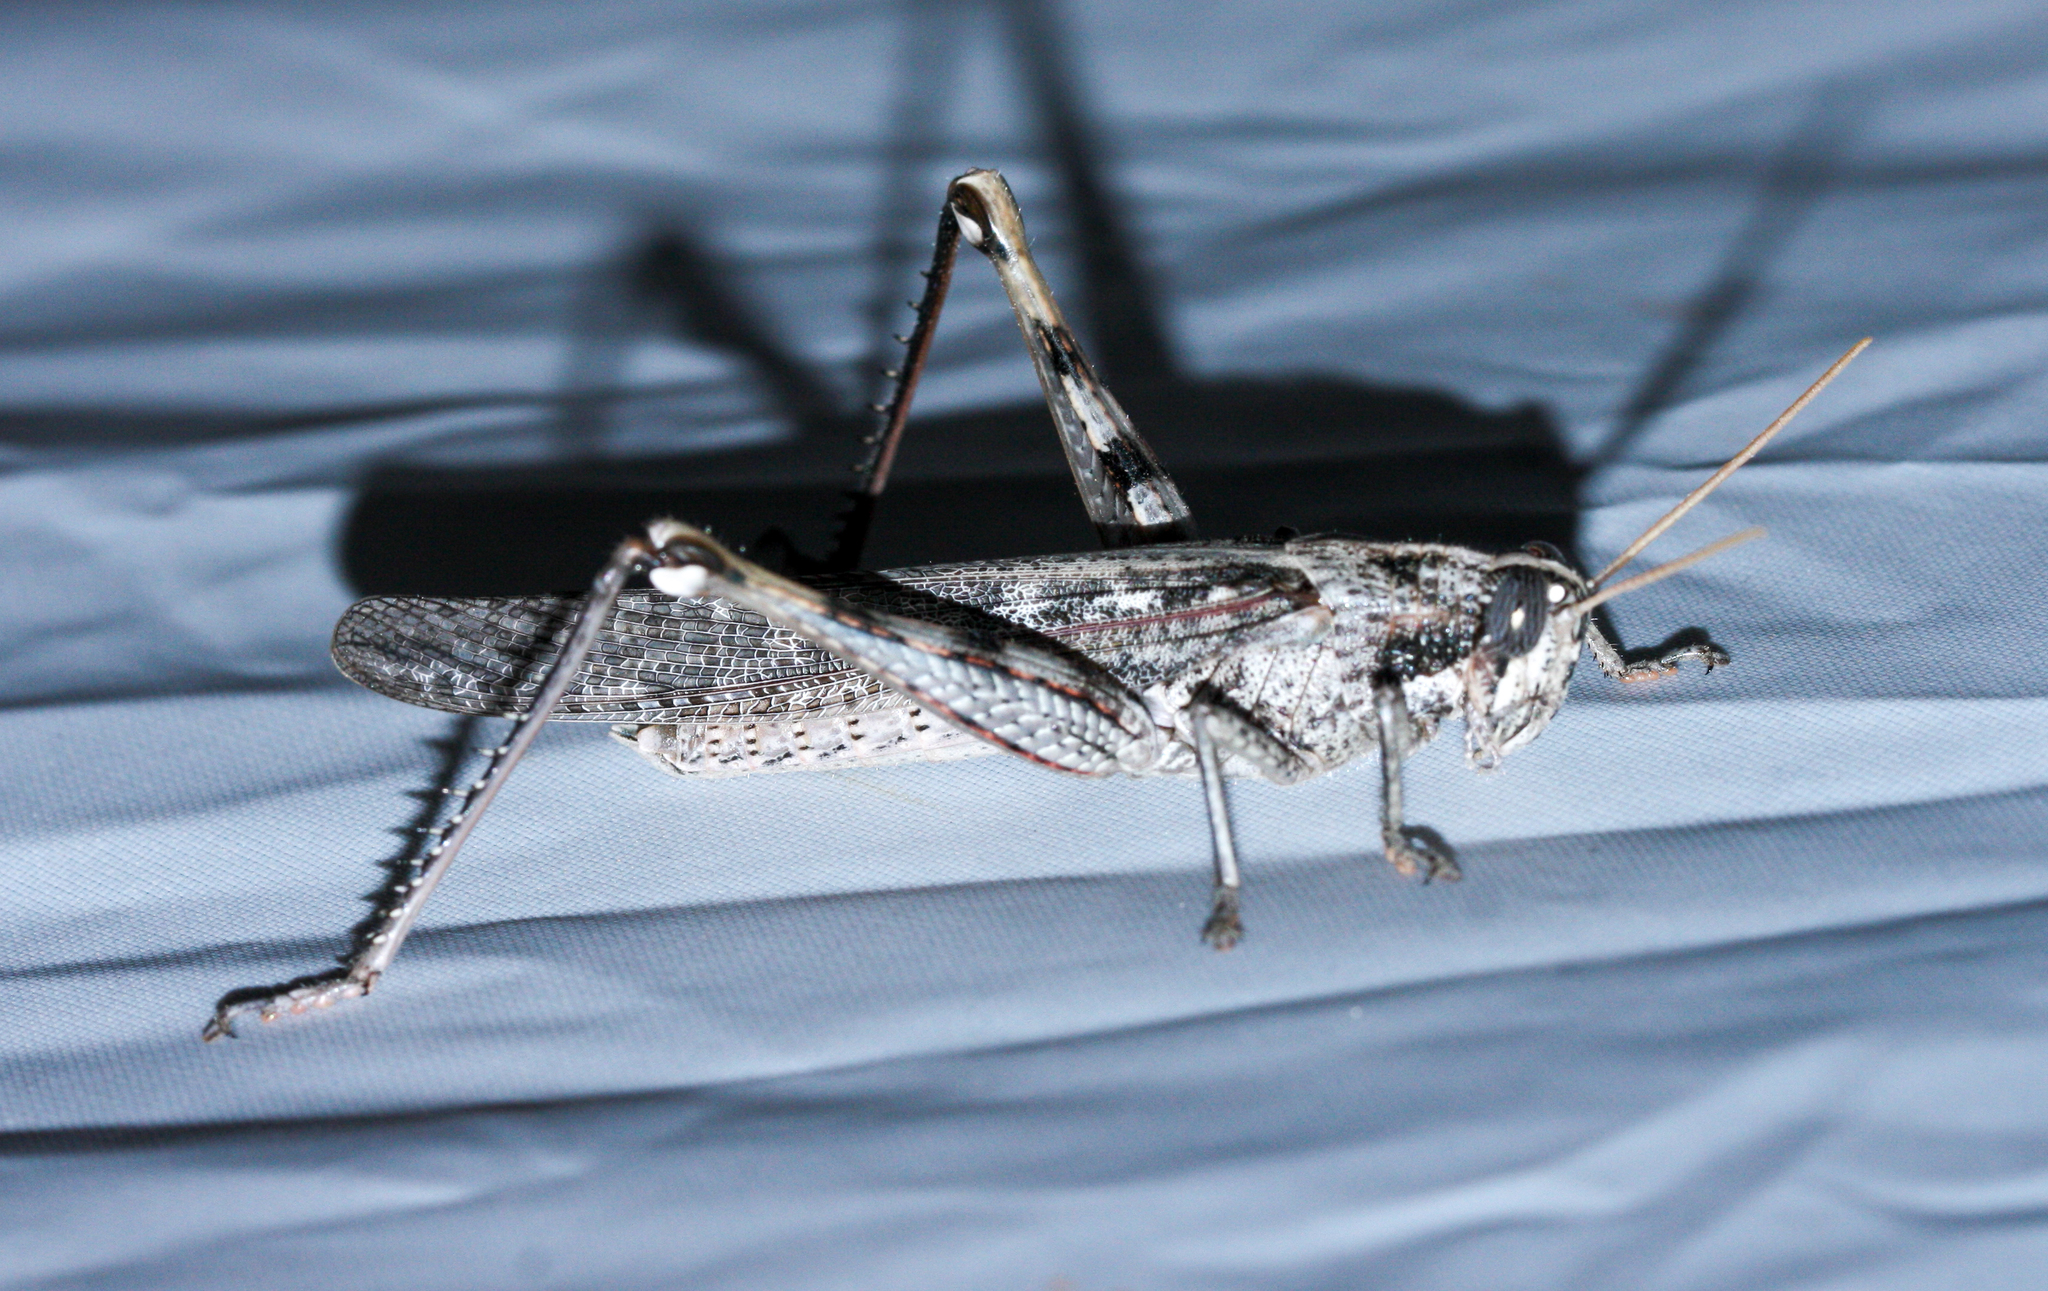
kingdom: Animalia
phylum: Arthropoda
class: Insecta
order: Orthoptera
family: Acrididae
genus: Schistocerca
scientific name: Schistocerca nitens
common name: Vagrant grasshopper
